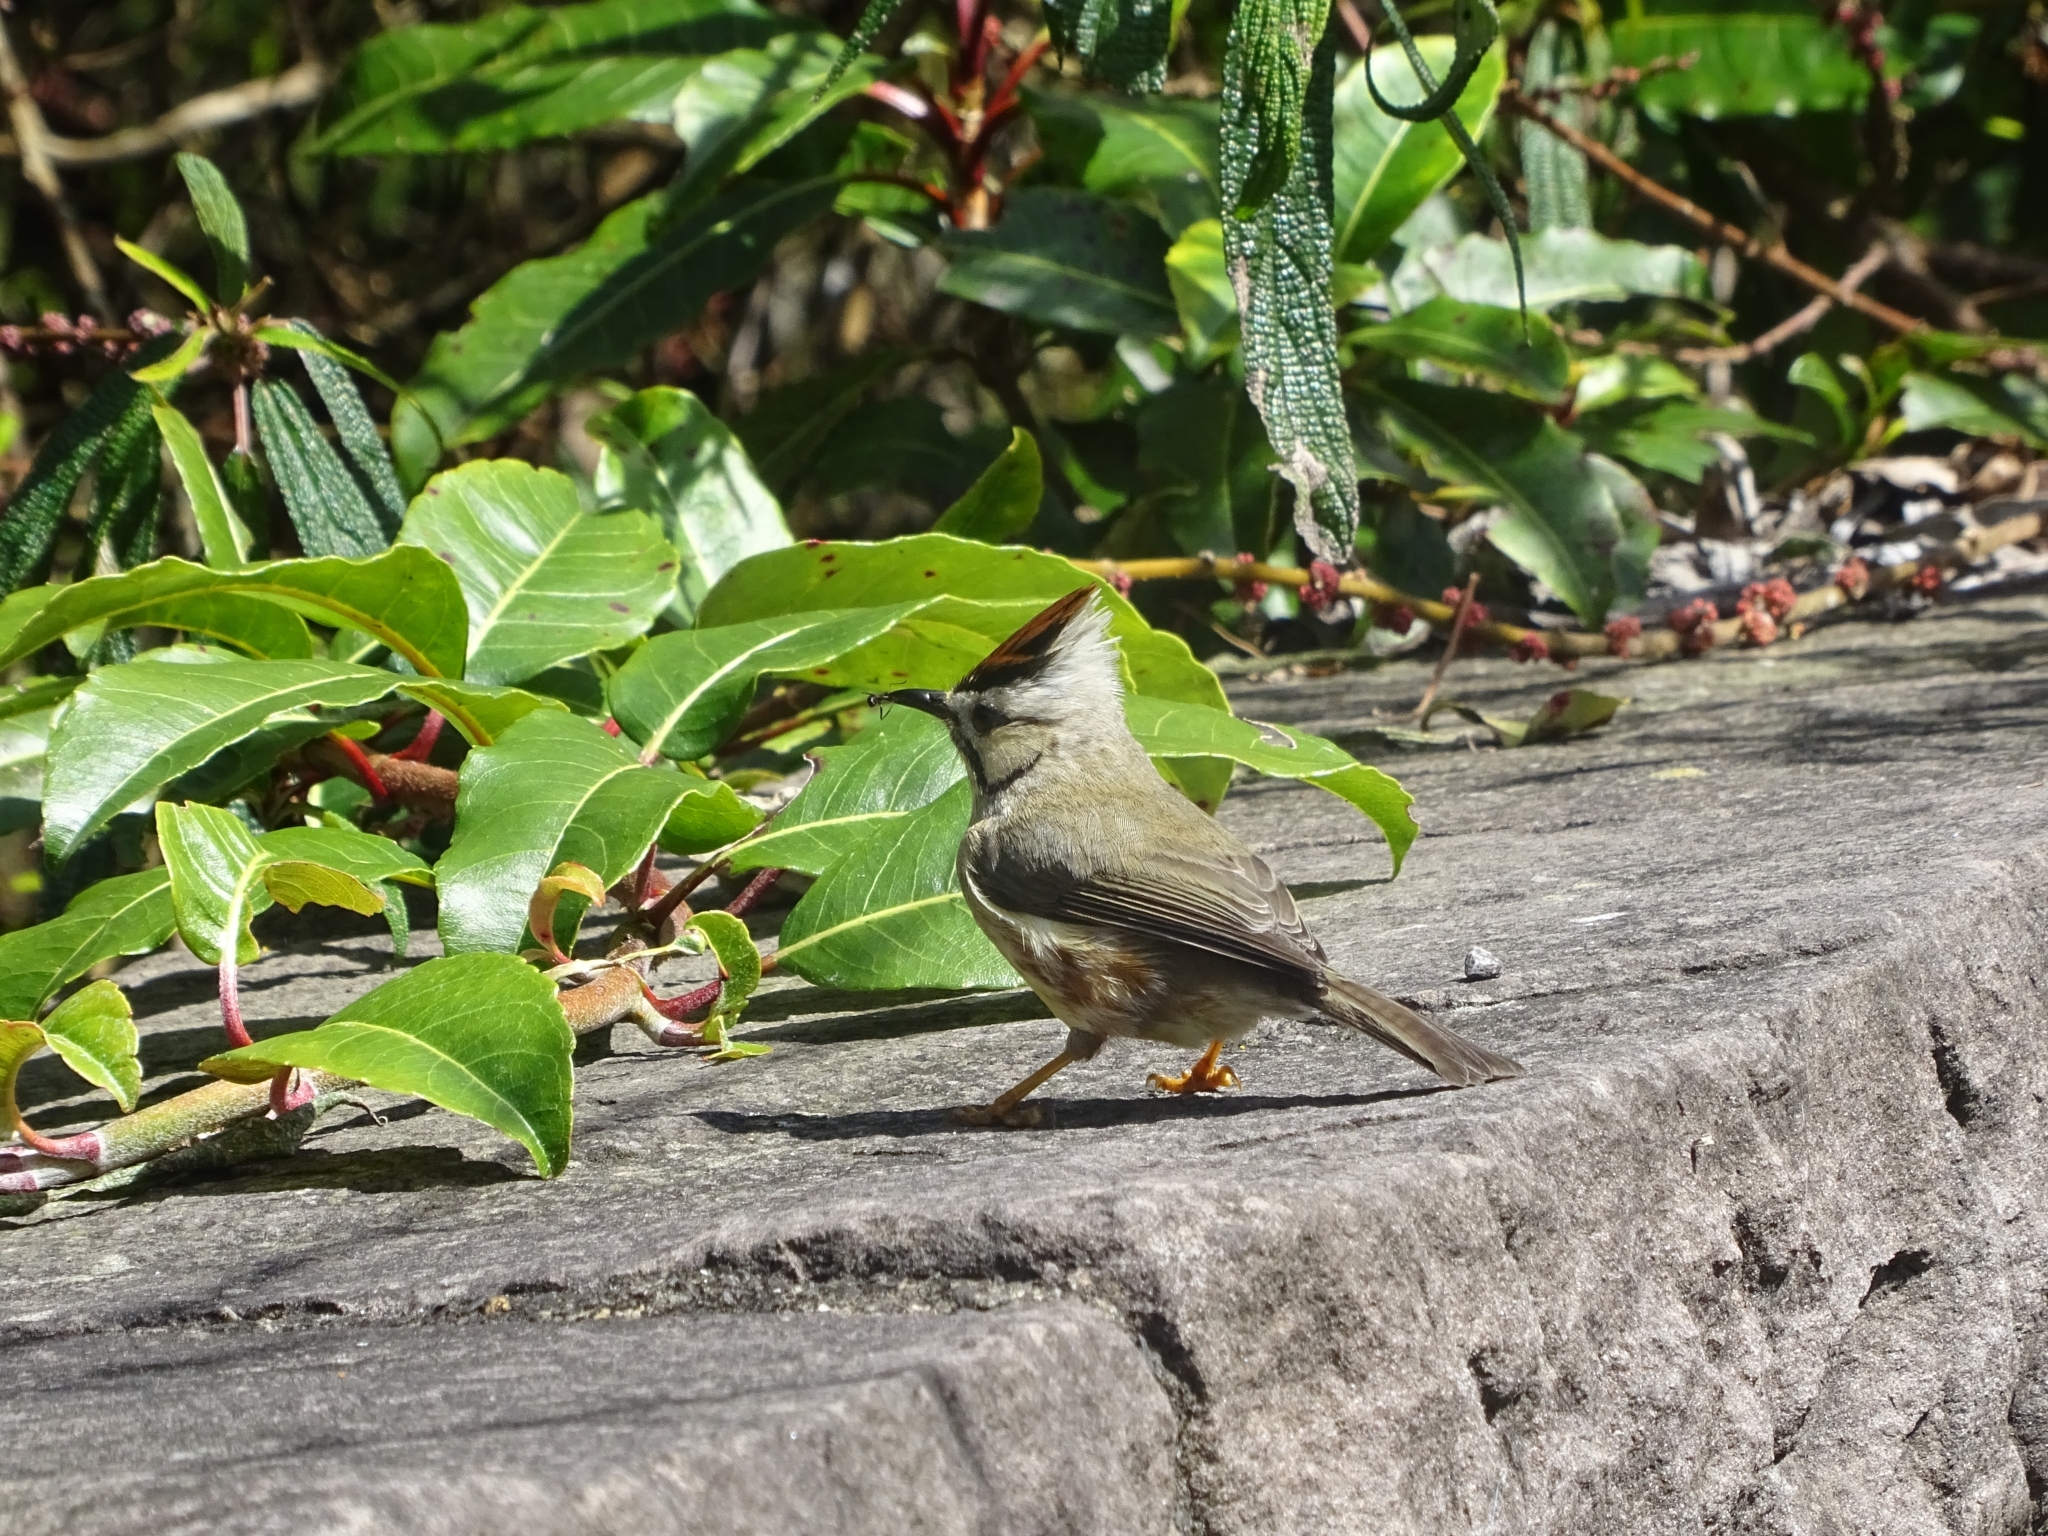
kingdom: Animalia
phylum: Chordata
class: Aves
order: Passeriformes
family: Zosteropidae
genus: Yuhina
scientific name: Yuhina brunneiceps
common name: Taiwan yuhina
